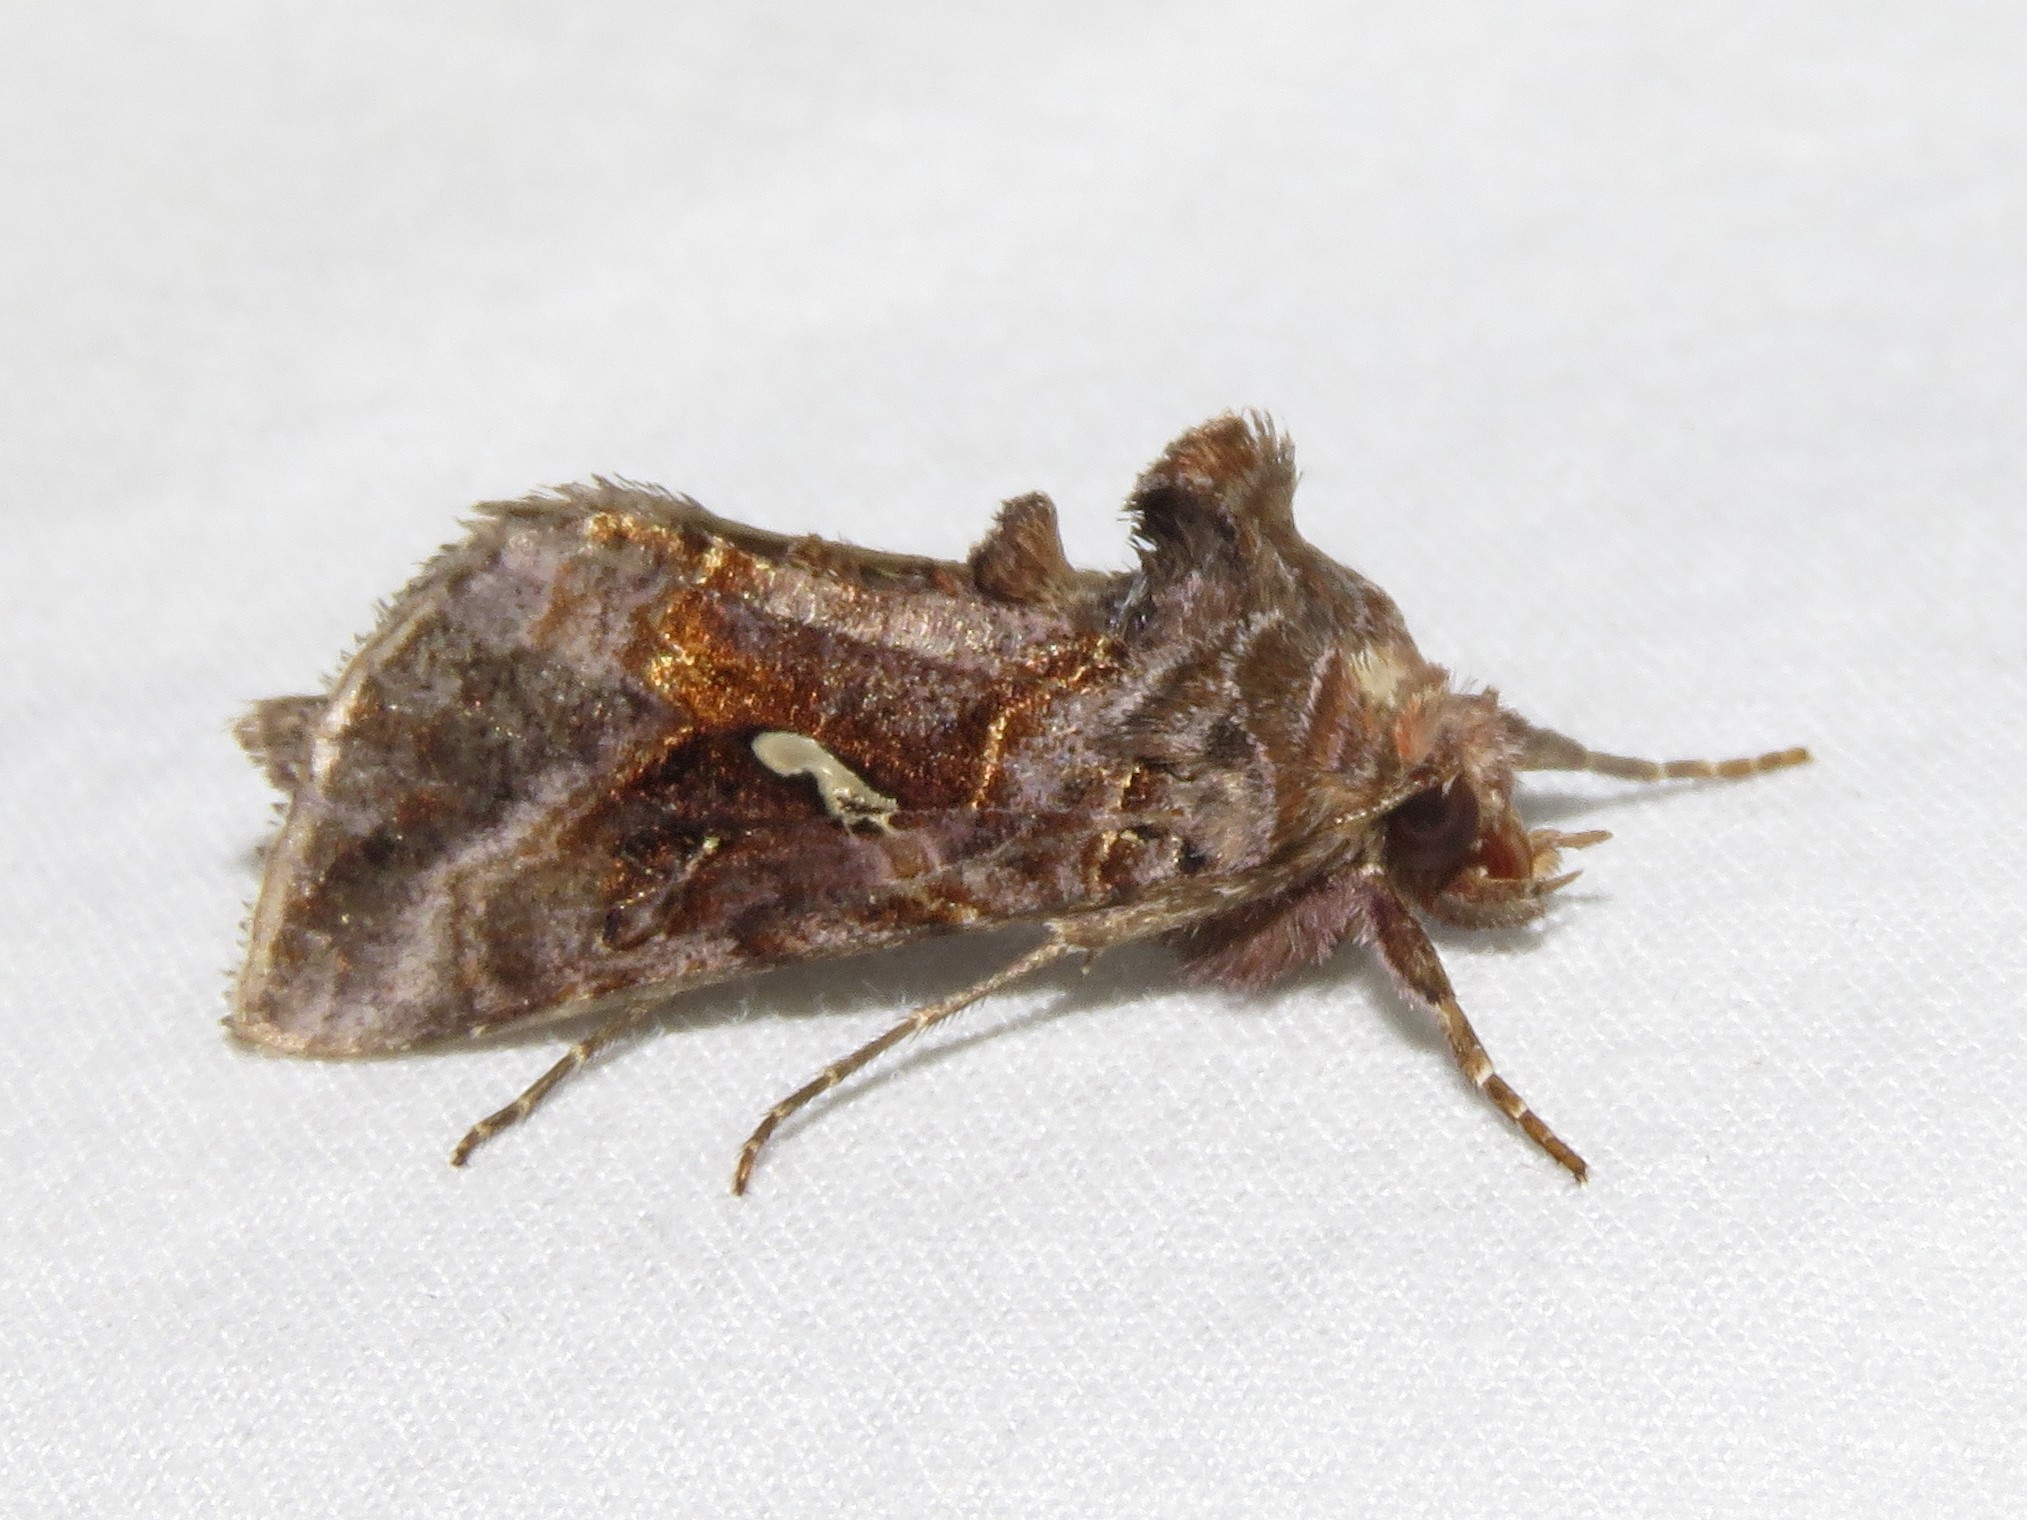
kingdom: Animalia
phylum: Arthropoda
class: Insecta
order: Lepidoptera
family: Noctuidae
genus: Autographa
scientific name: Autographa precationis
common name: Common looper moth
